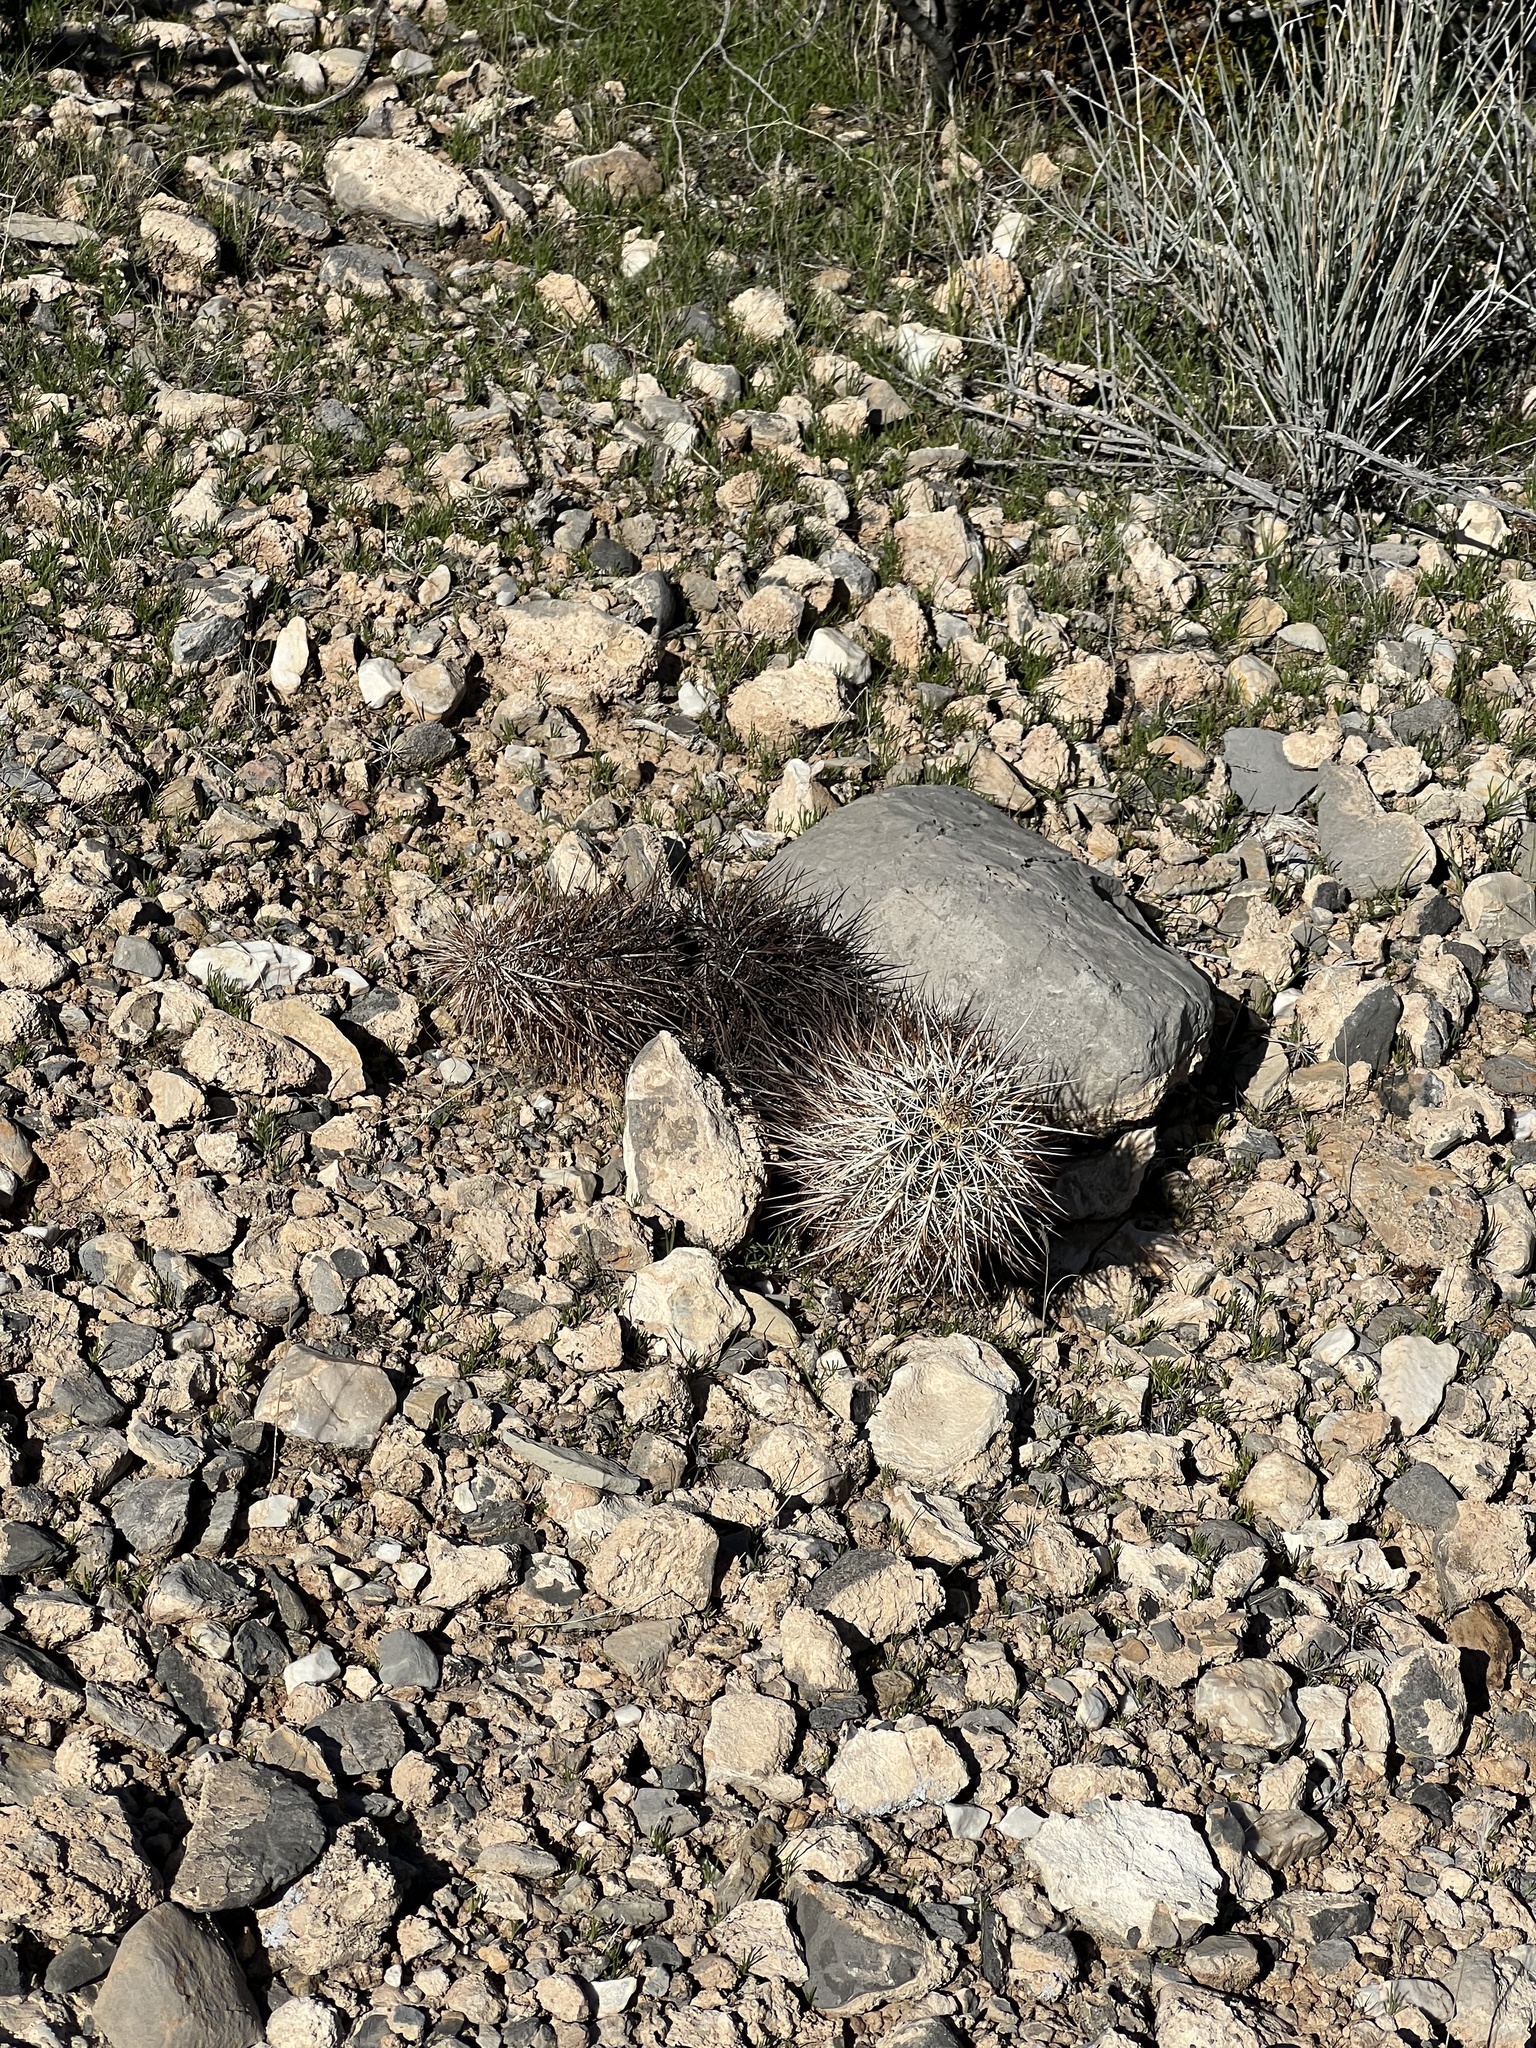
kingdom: Plantae
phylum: Tracheophyta
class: Magnoliopsida
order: Caryophyllales
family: Cactaceae
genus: Echinocereus
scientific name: Echinocereus engelmannii
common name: Engelmann's hedgehog cactus
